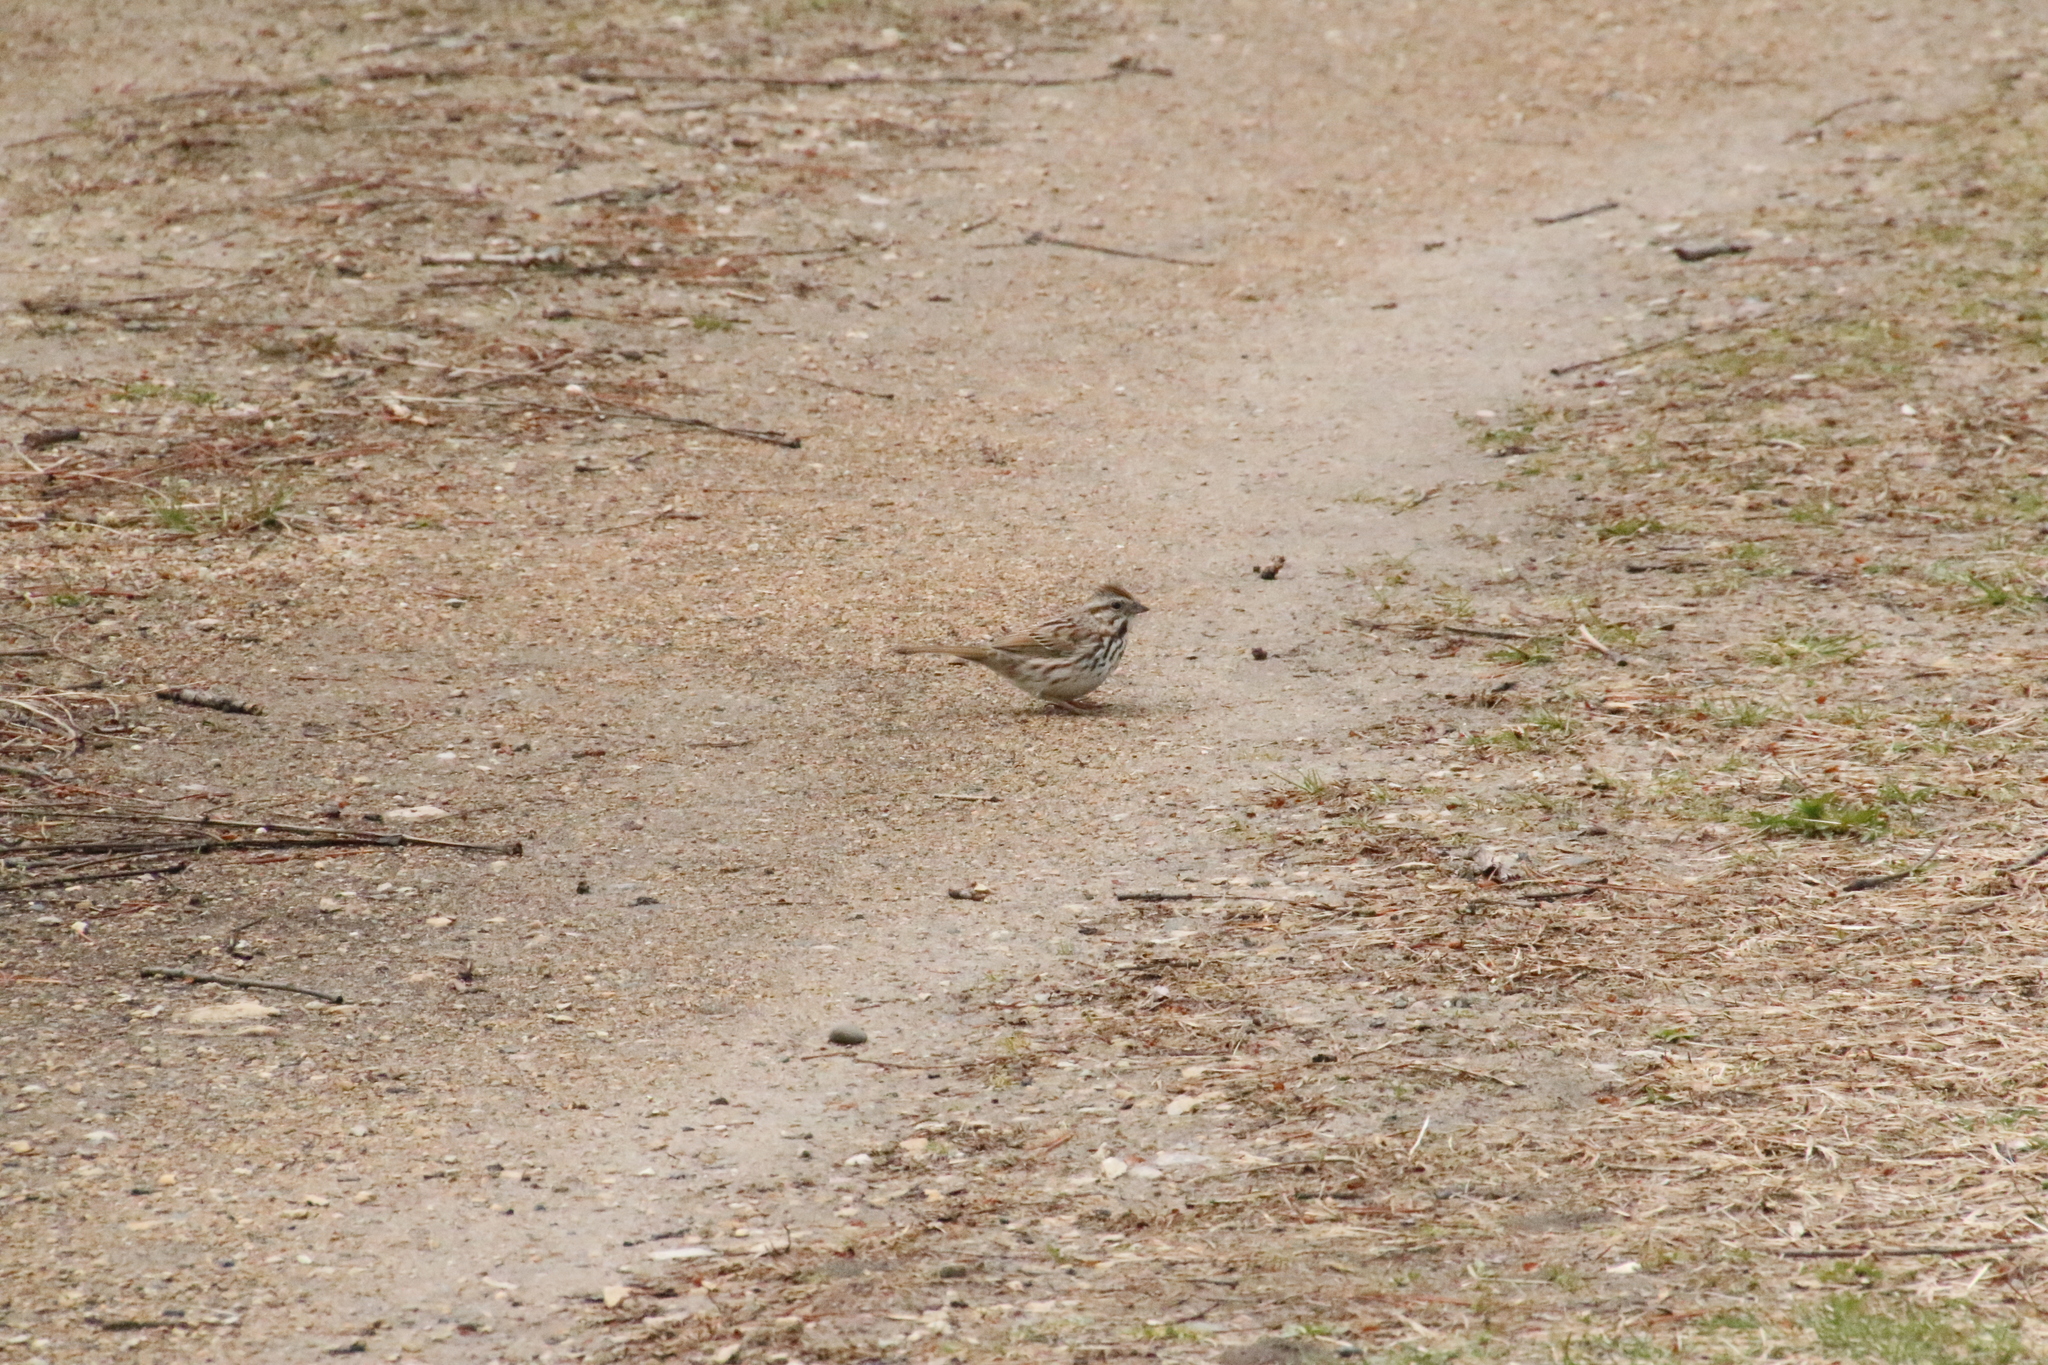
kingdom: Animalia
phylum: Chordata
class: Aves
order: Passeriformes
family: Passerellidae
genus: Melospiza
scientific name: Melospiza melodia
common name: Song sparrow
